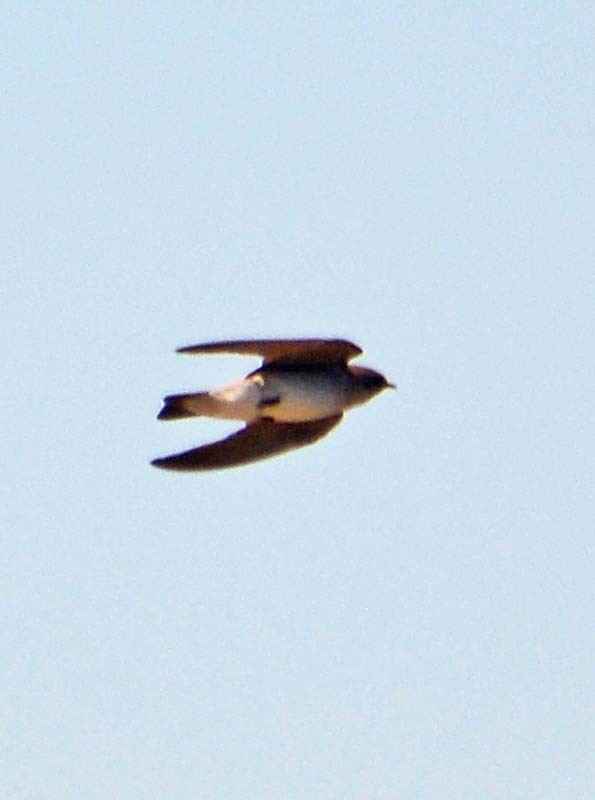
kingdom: Animalia
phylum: Chordata
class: Aves
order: Passeriformes
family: Hirundinidae
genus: Stelgidopteryx
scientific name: Stelgidopteryx serripennis
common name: Northern rough-winged swallow
